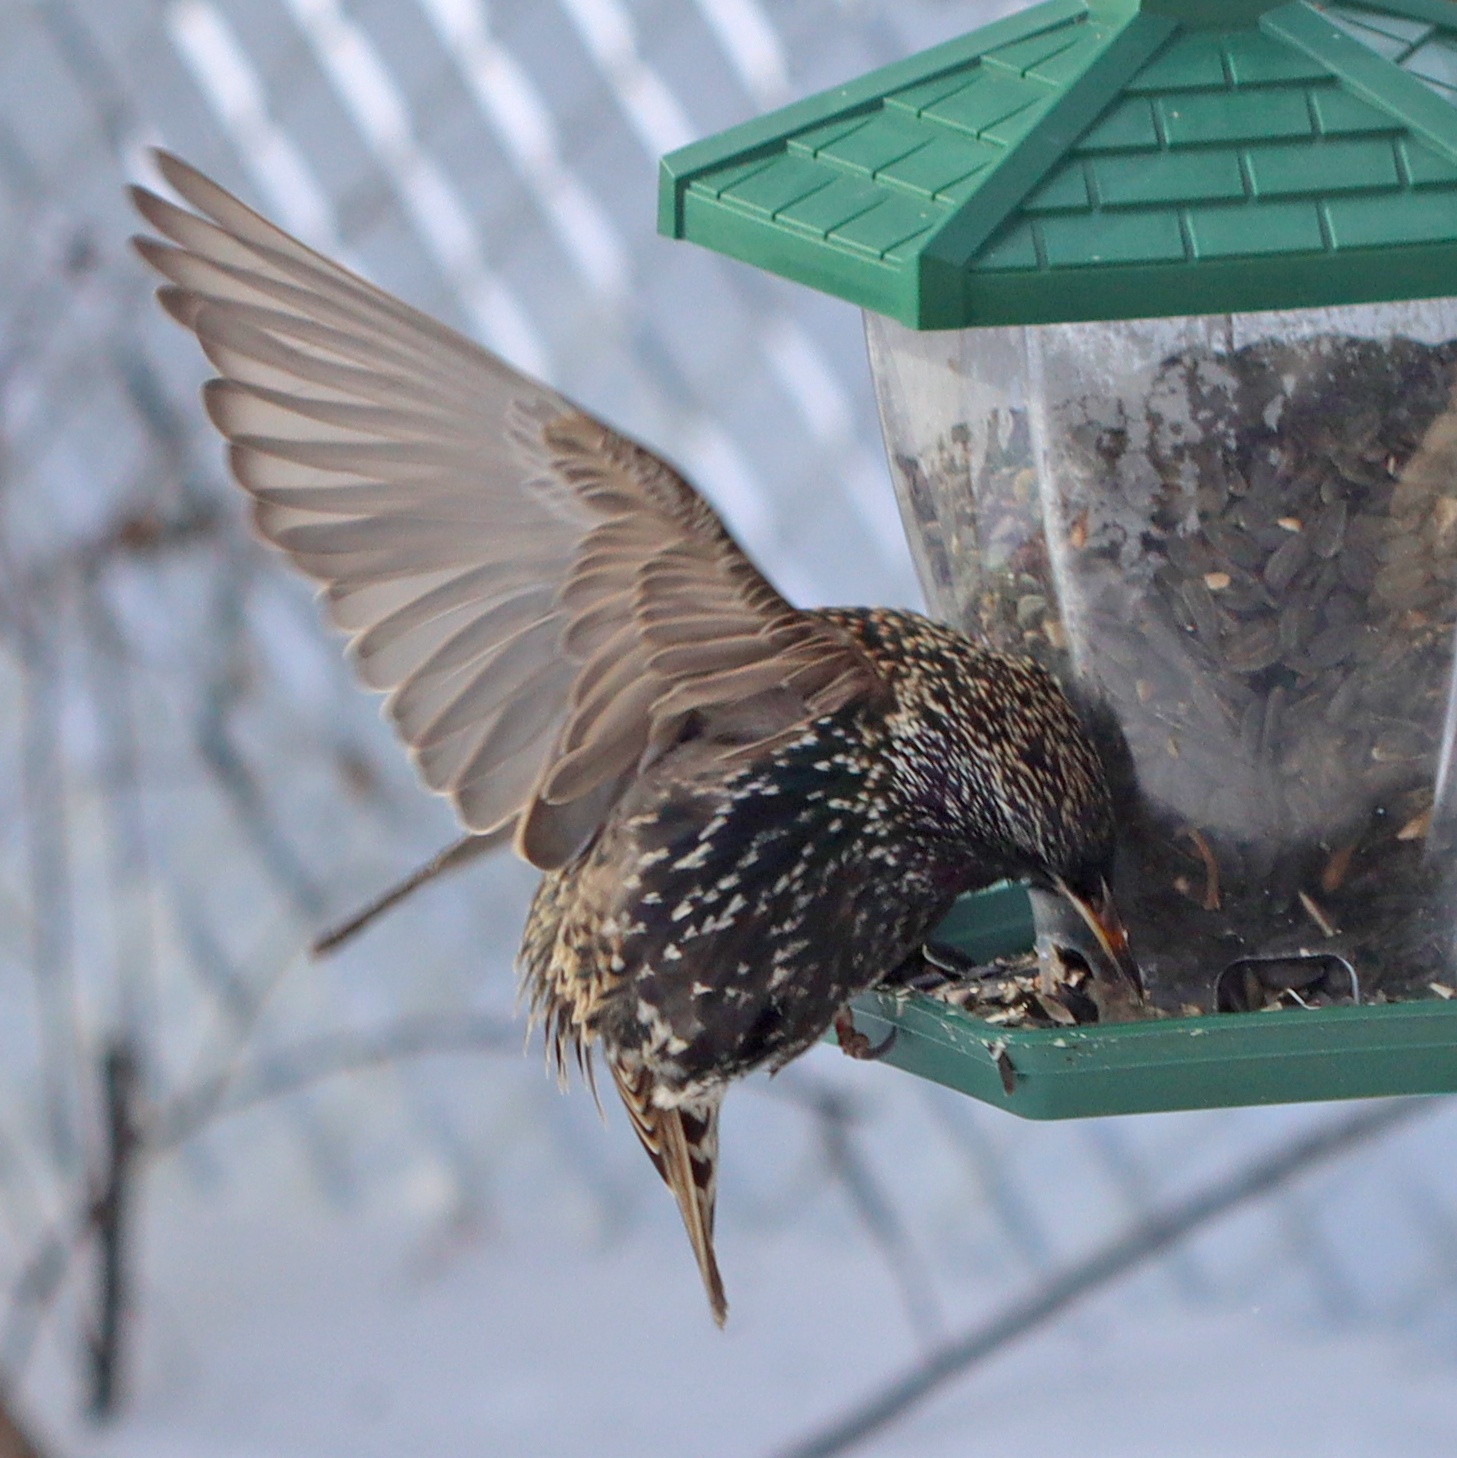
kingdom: Animalia
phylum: Chordata
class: Aves
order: Passeriformes
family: Sturnidae
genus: Sturnus
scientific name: Sturnus vulgaris
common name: Common starling
